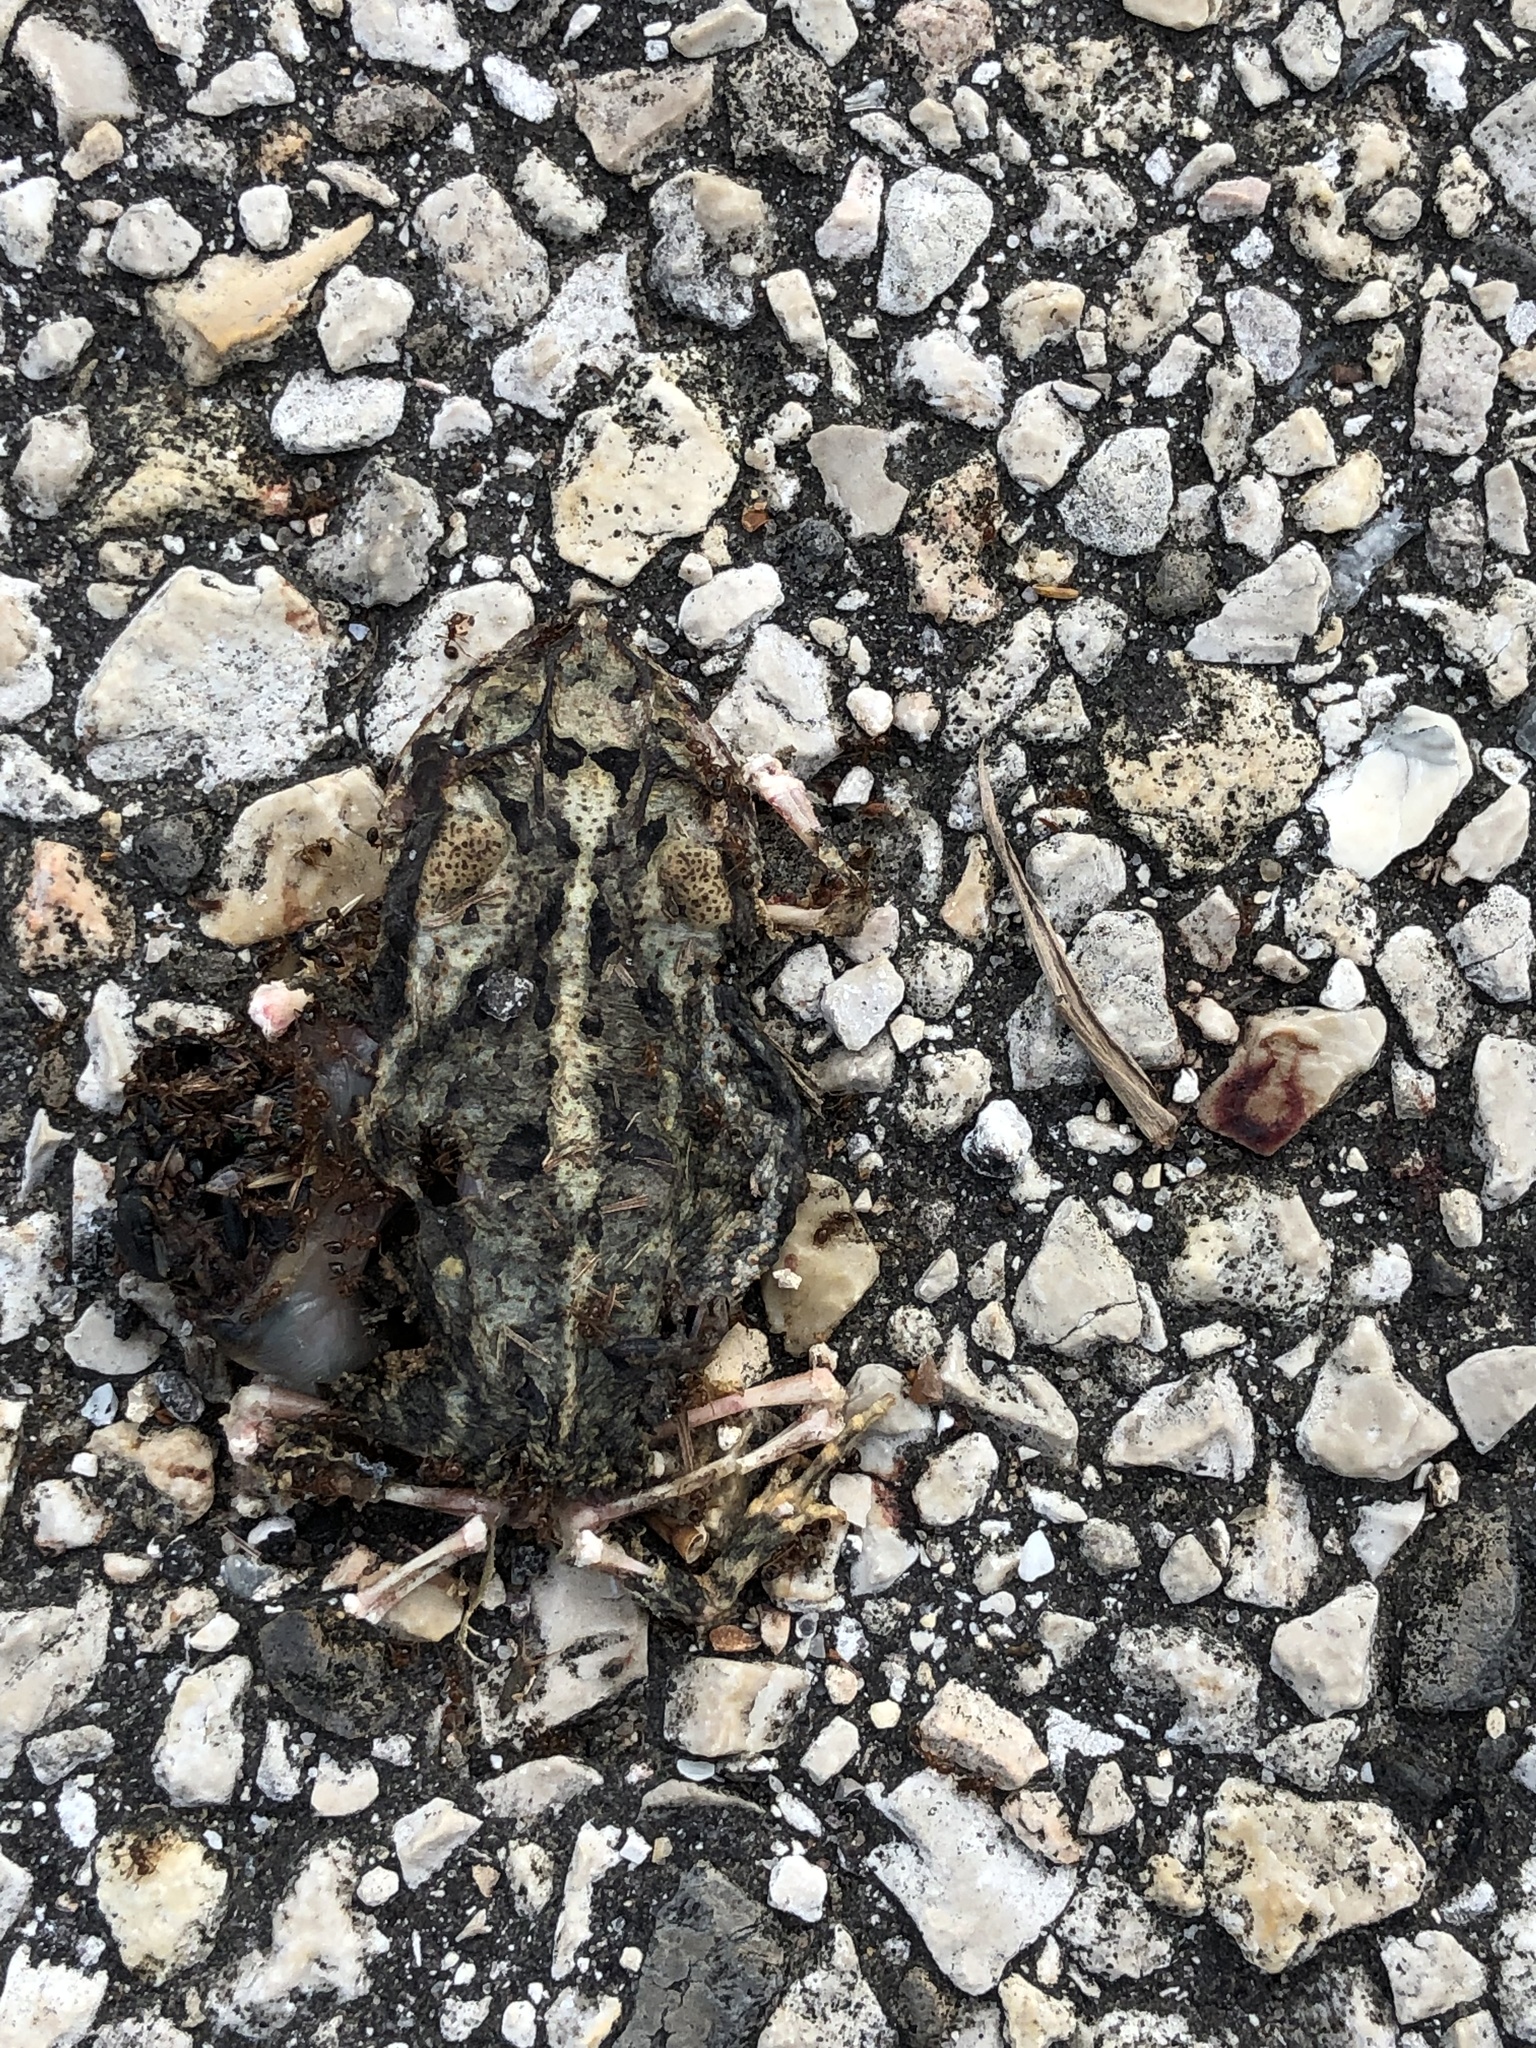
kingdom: Animalia
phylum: Chordata
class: Amphibia
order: Anura
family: Bufonidae
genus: Incilius
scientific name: Incilius nebulifer
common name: Gulf coast toad
